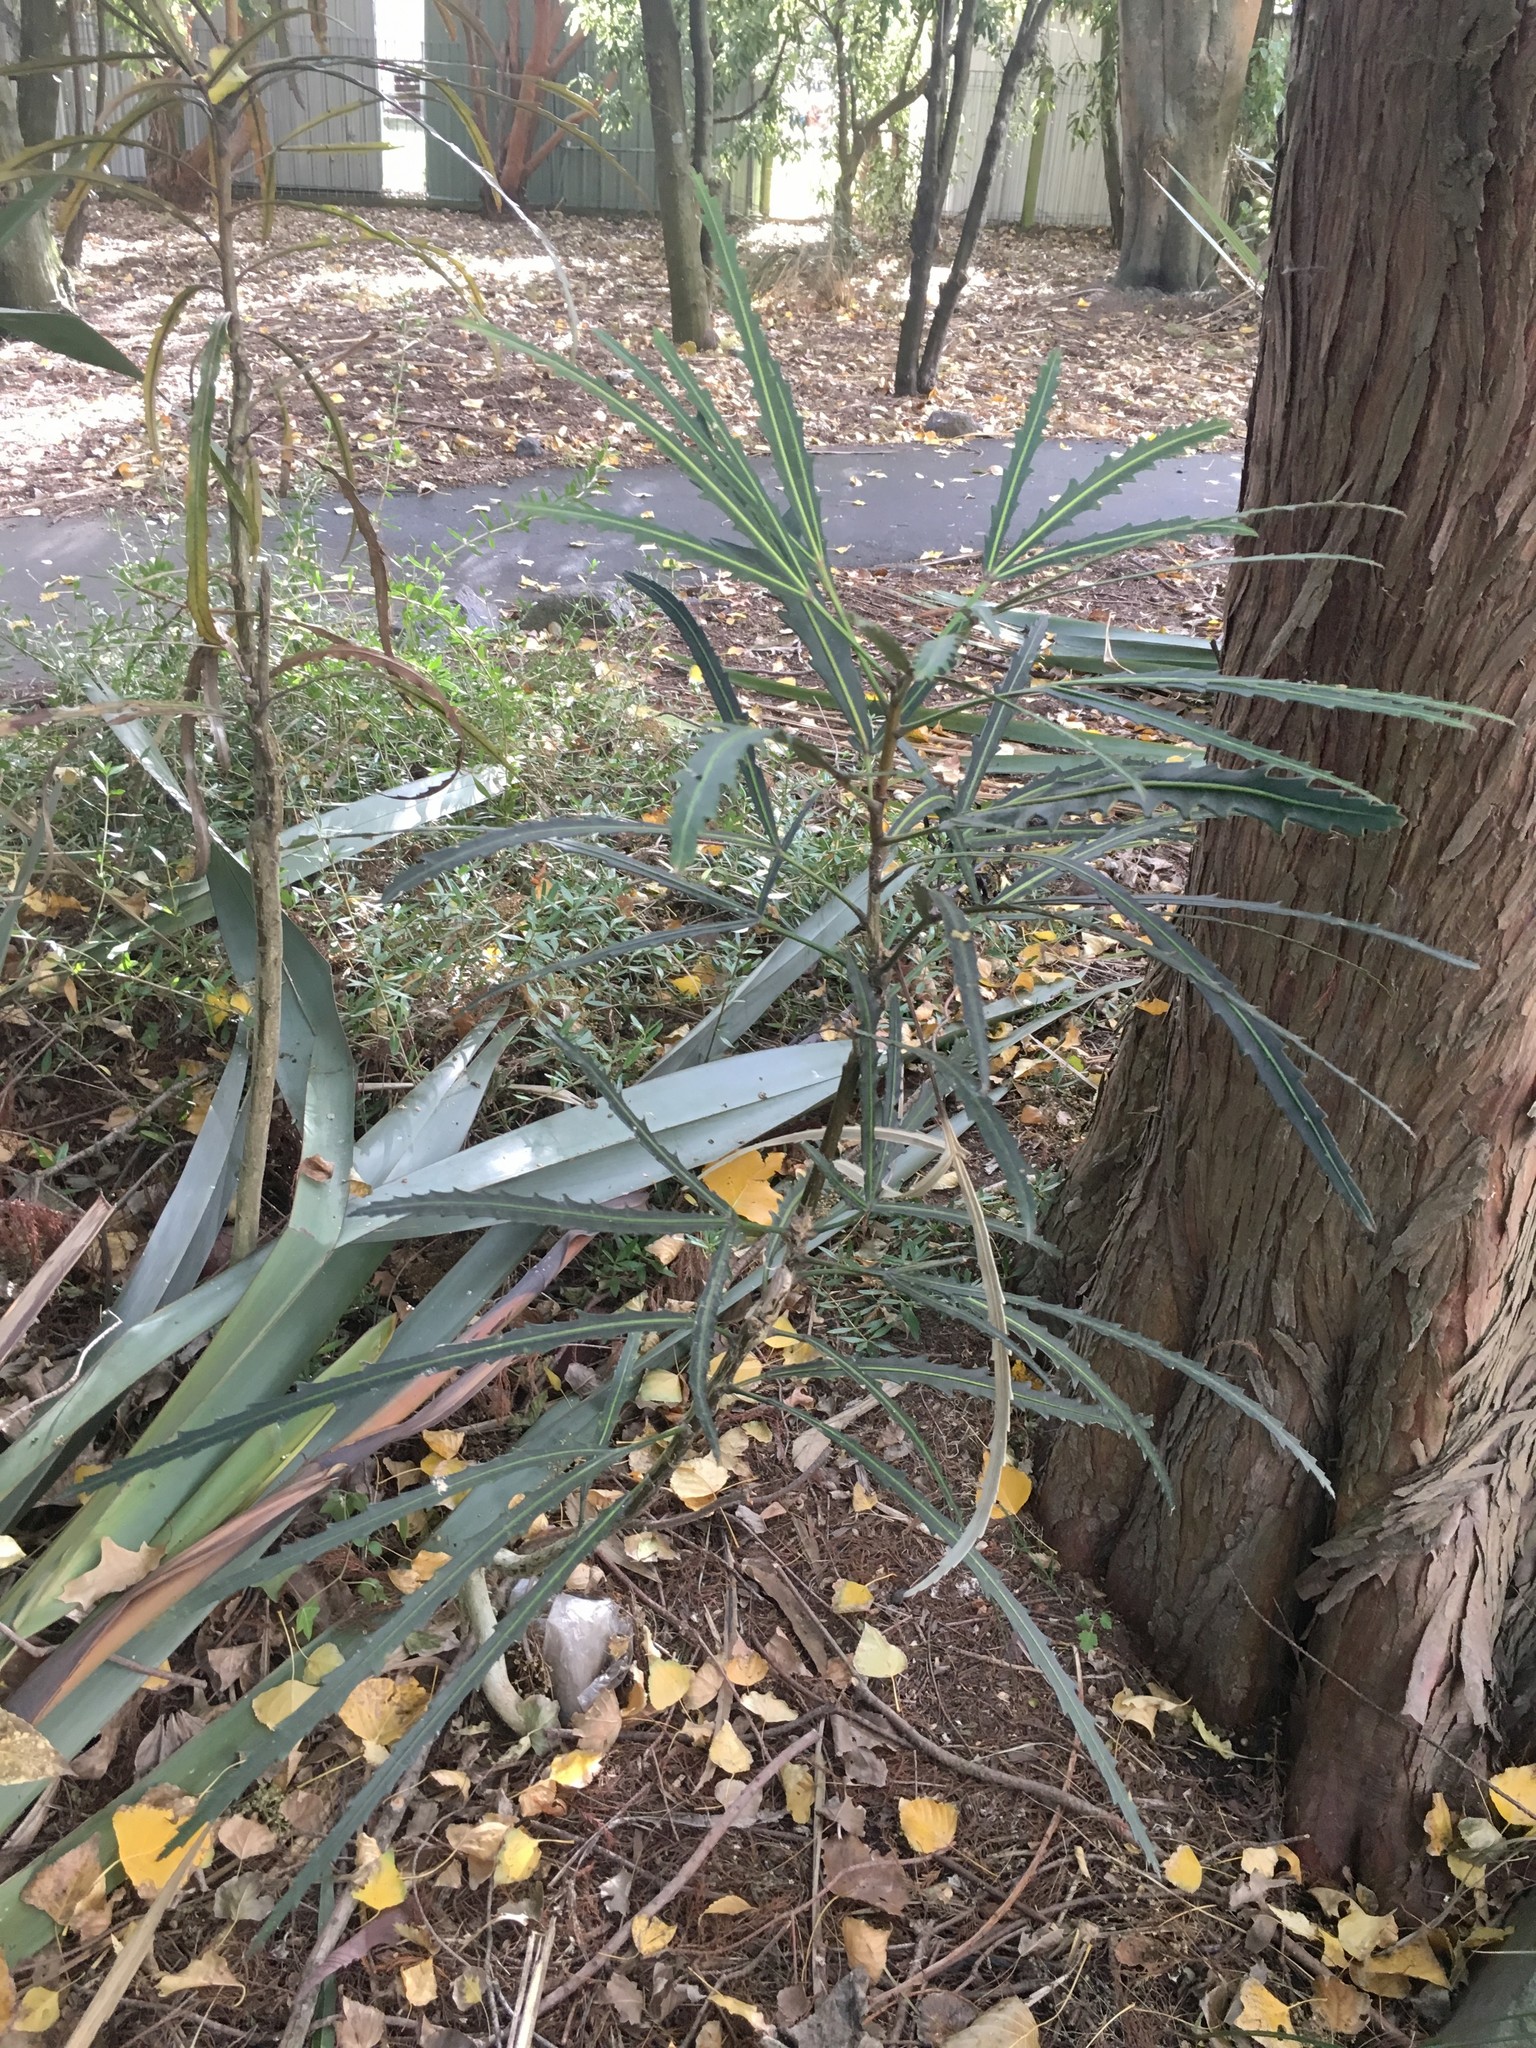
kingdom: Plantae
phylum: Tracheophyta
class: Liliopsida
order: Poales
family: Poaceae
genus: Anemanthele
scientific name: Anemanthele lessoniana
